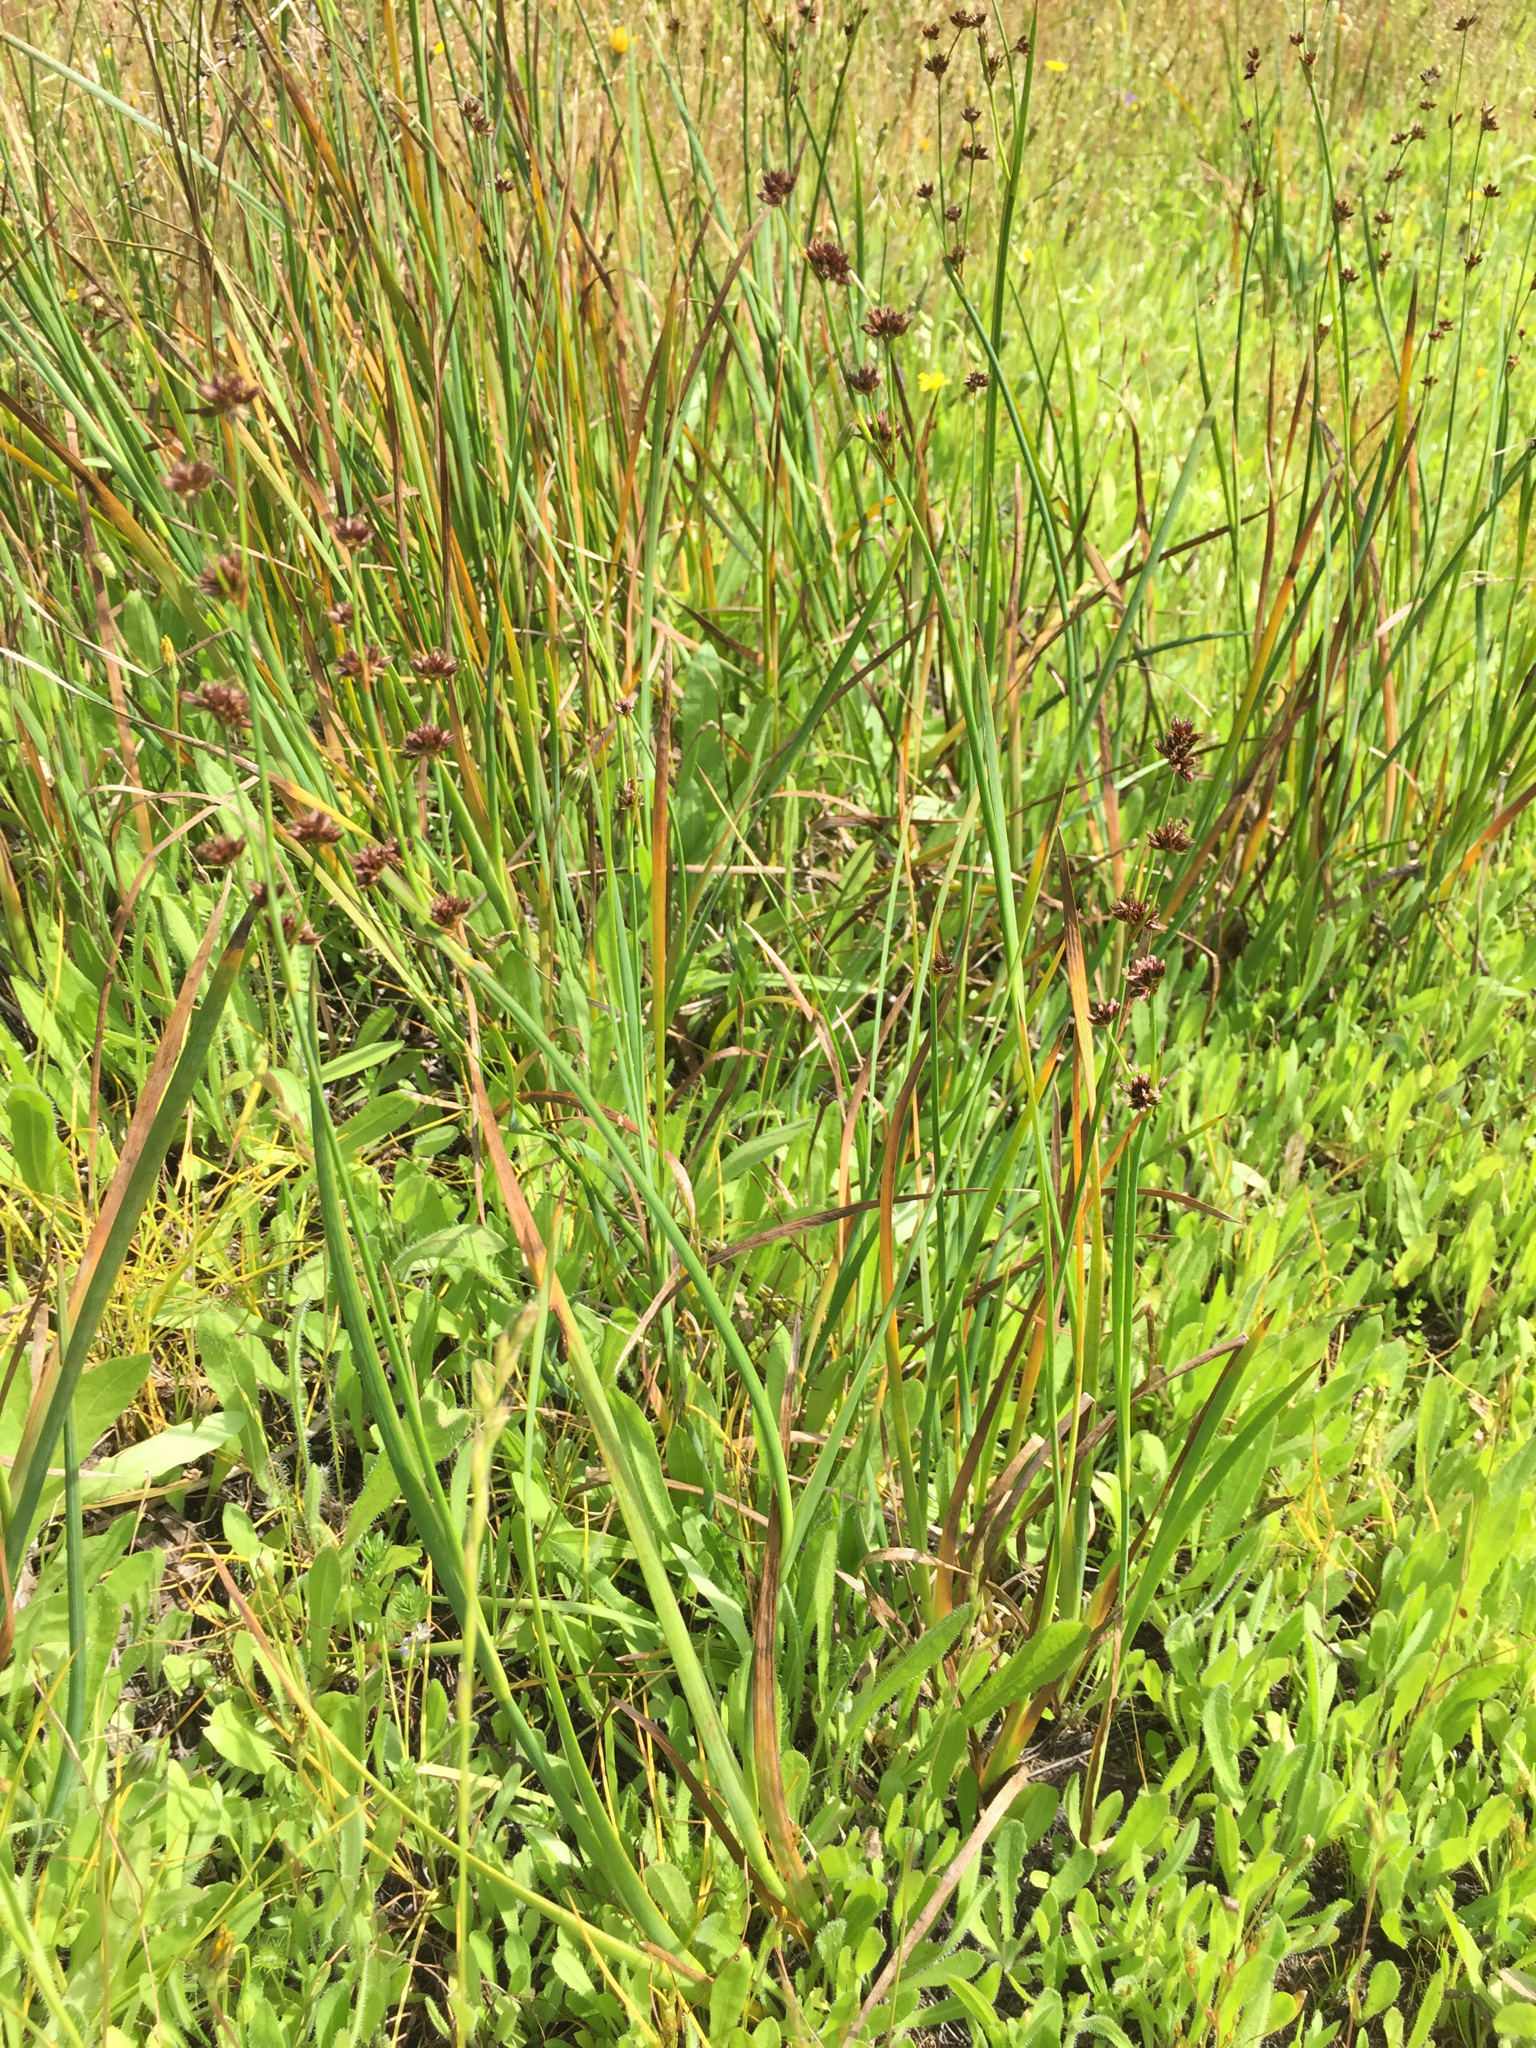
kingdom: Plantae
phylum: Tracheophyta
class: Liliopsida
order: Poales
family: Juncaceae
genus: Juncus
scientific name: Juncus xiphioides
